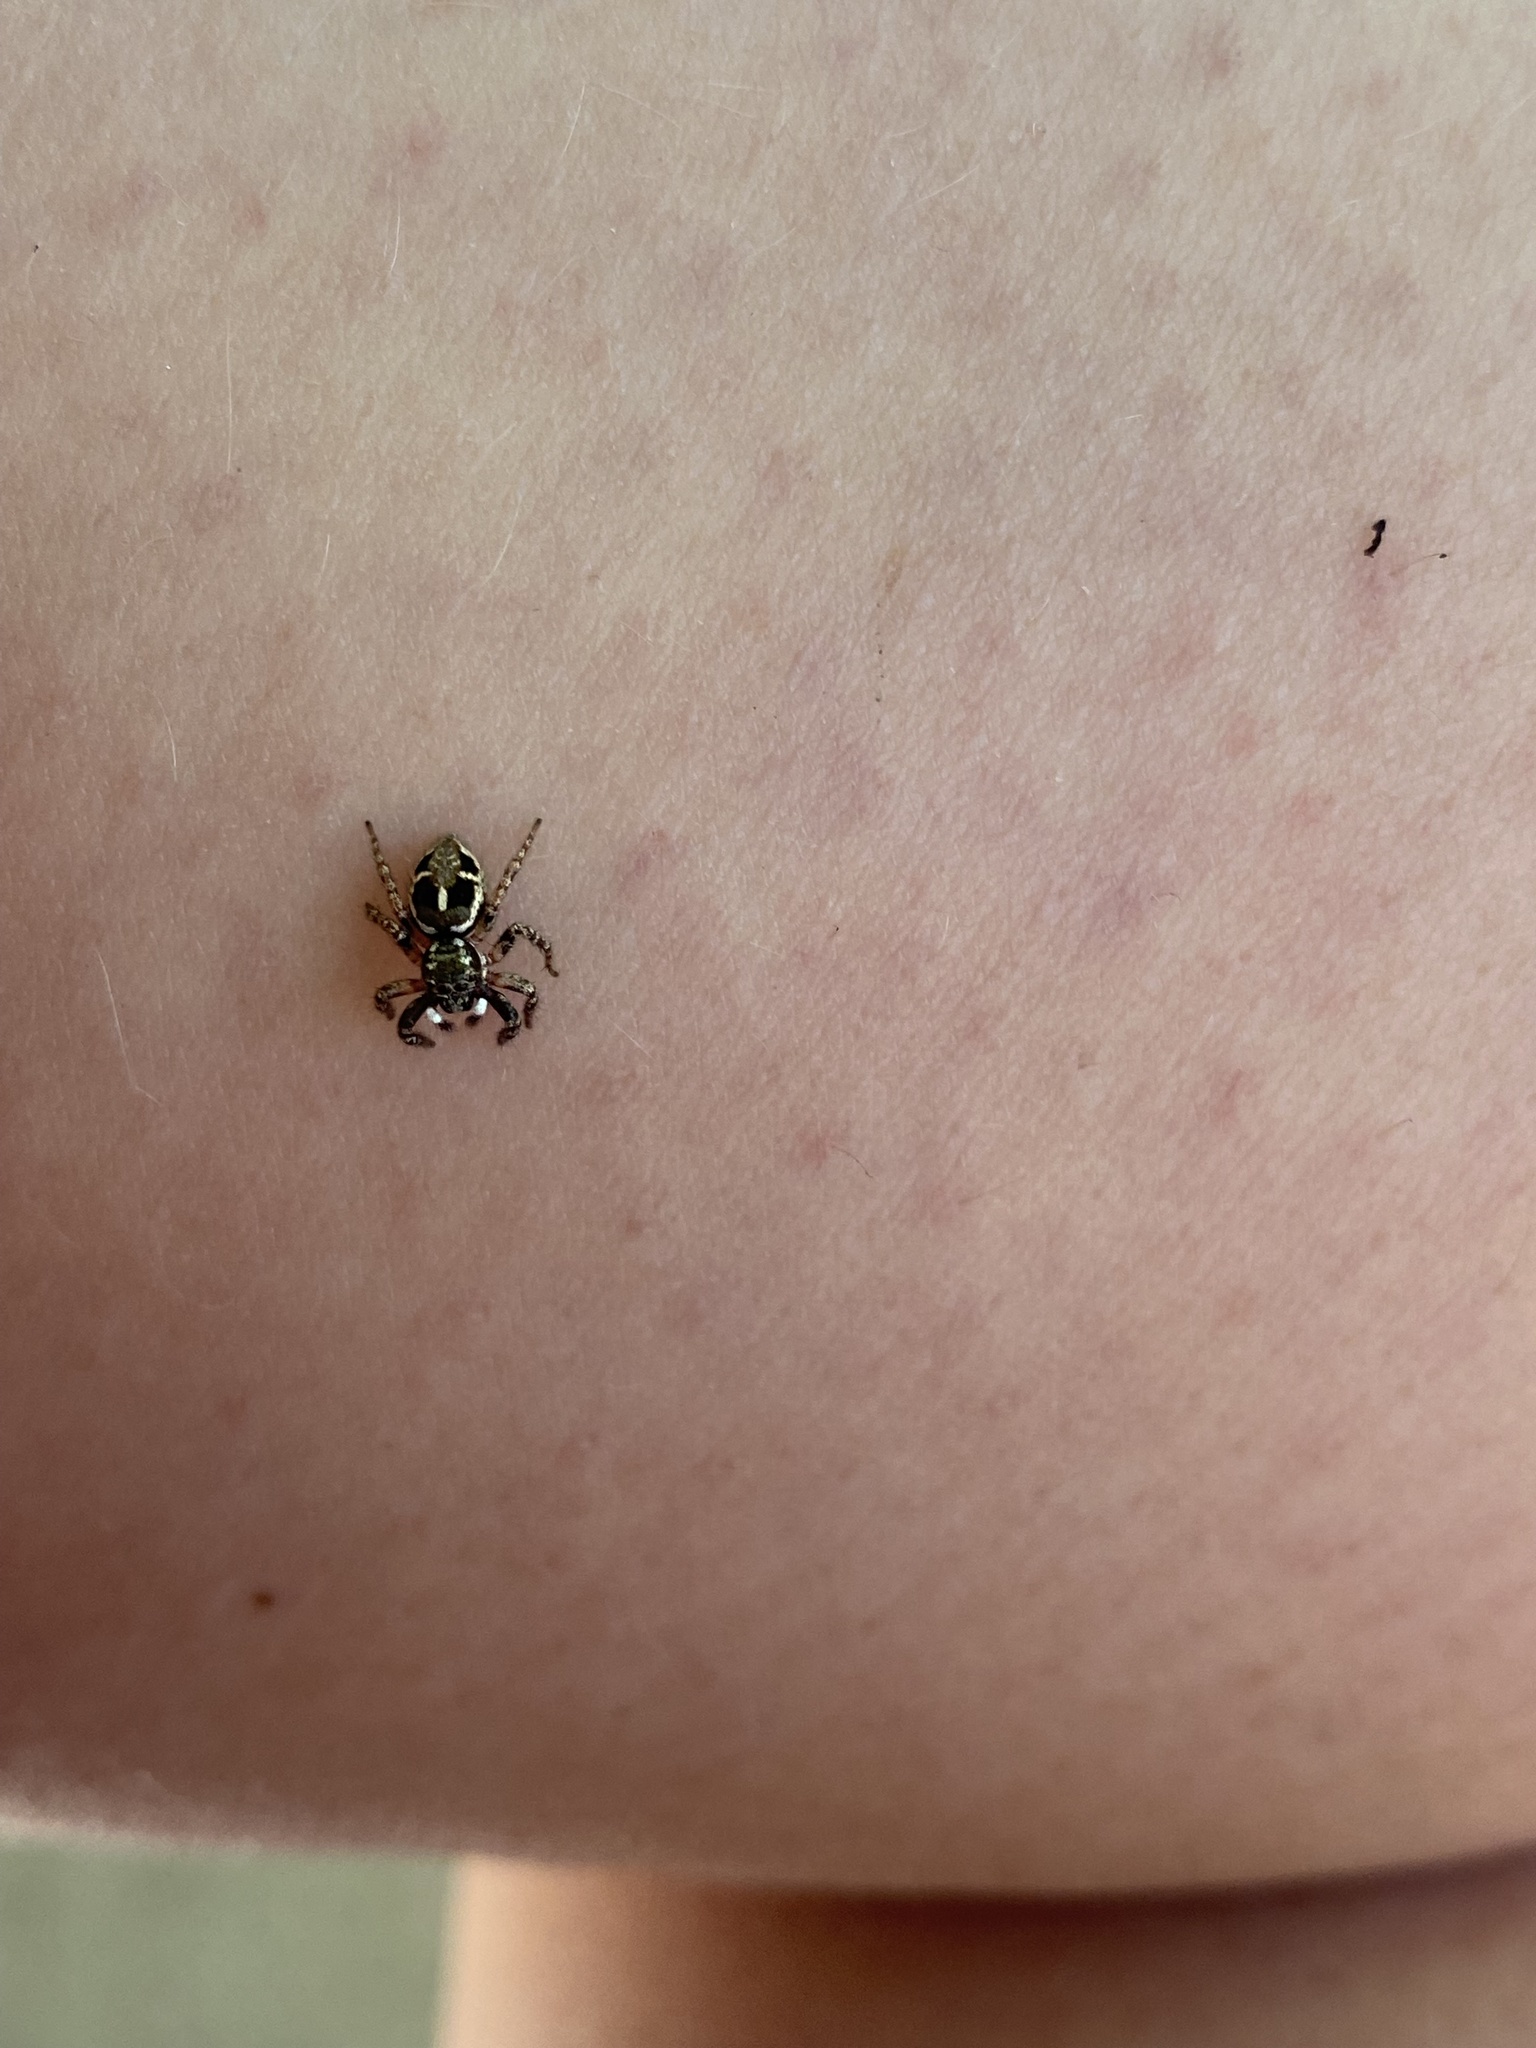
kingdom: Animalia
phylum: Arthropoda
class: Arachnida
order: Araneae
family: Salticidae
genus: Anasaitis
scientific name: Anasaitis canosa
